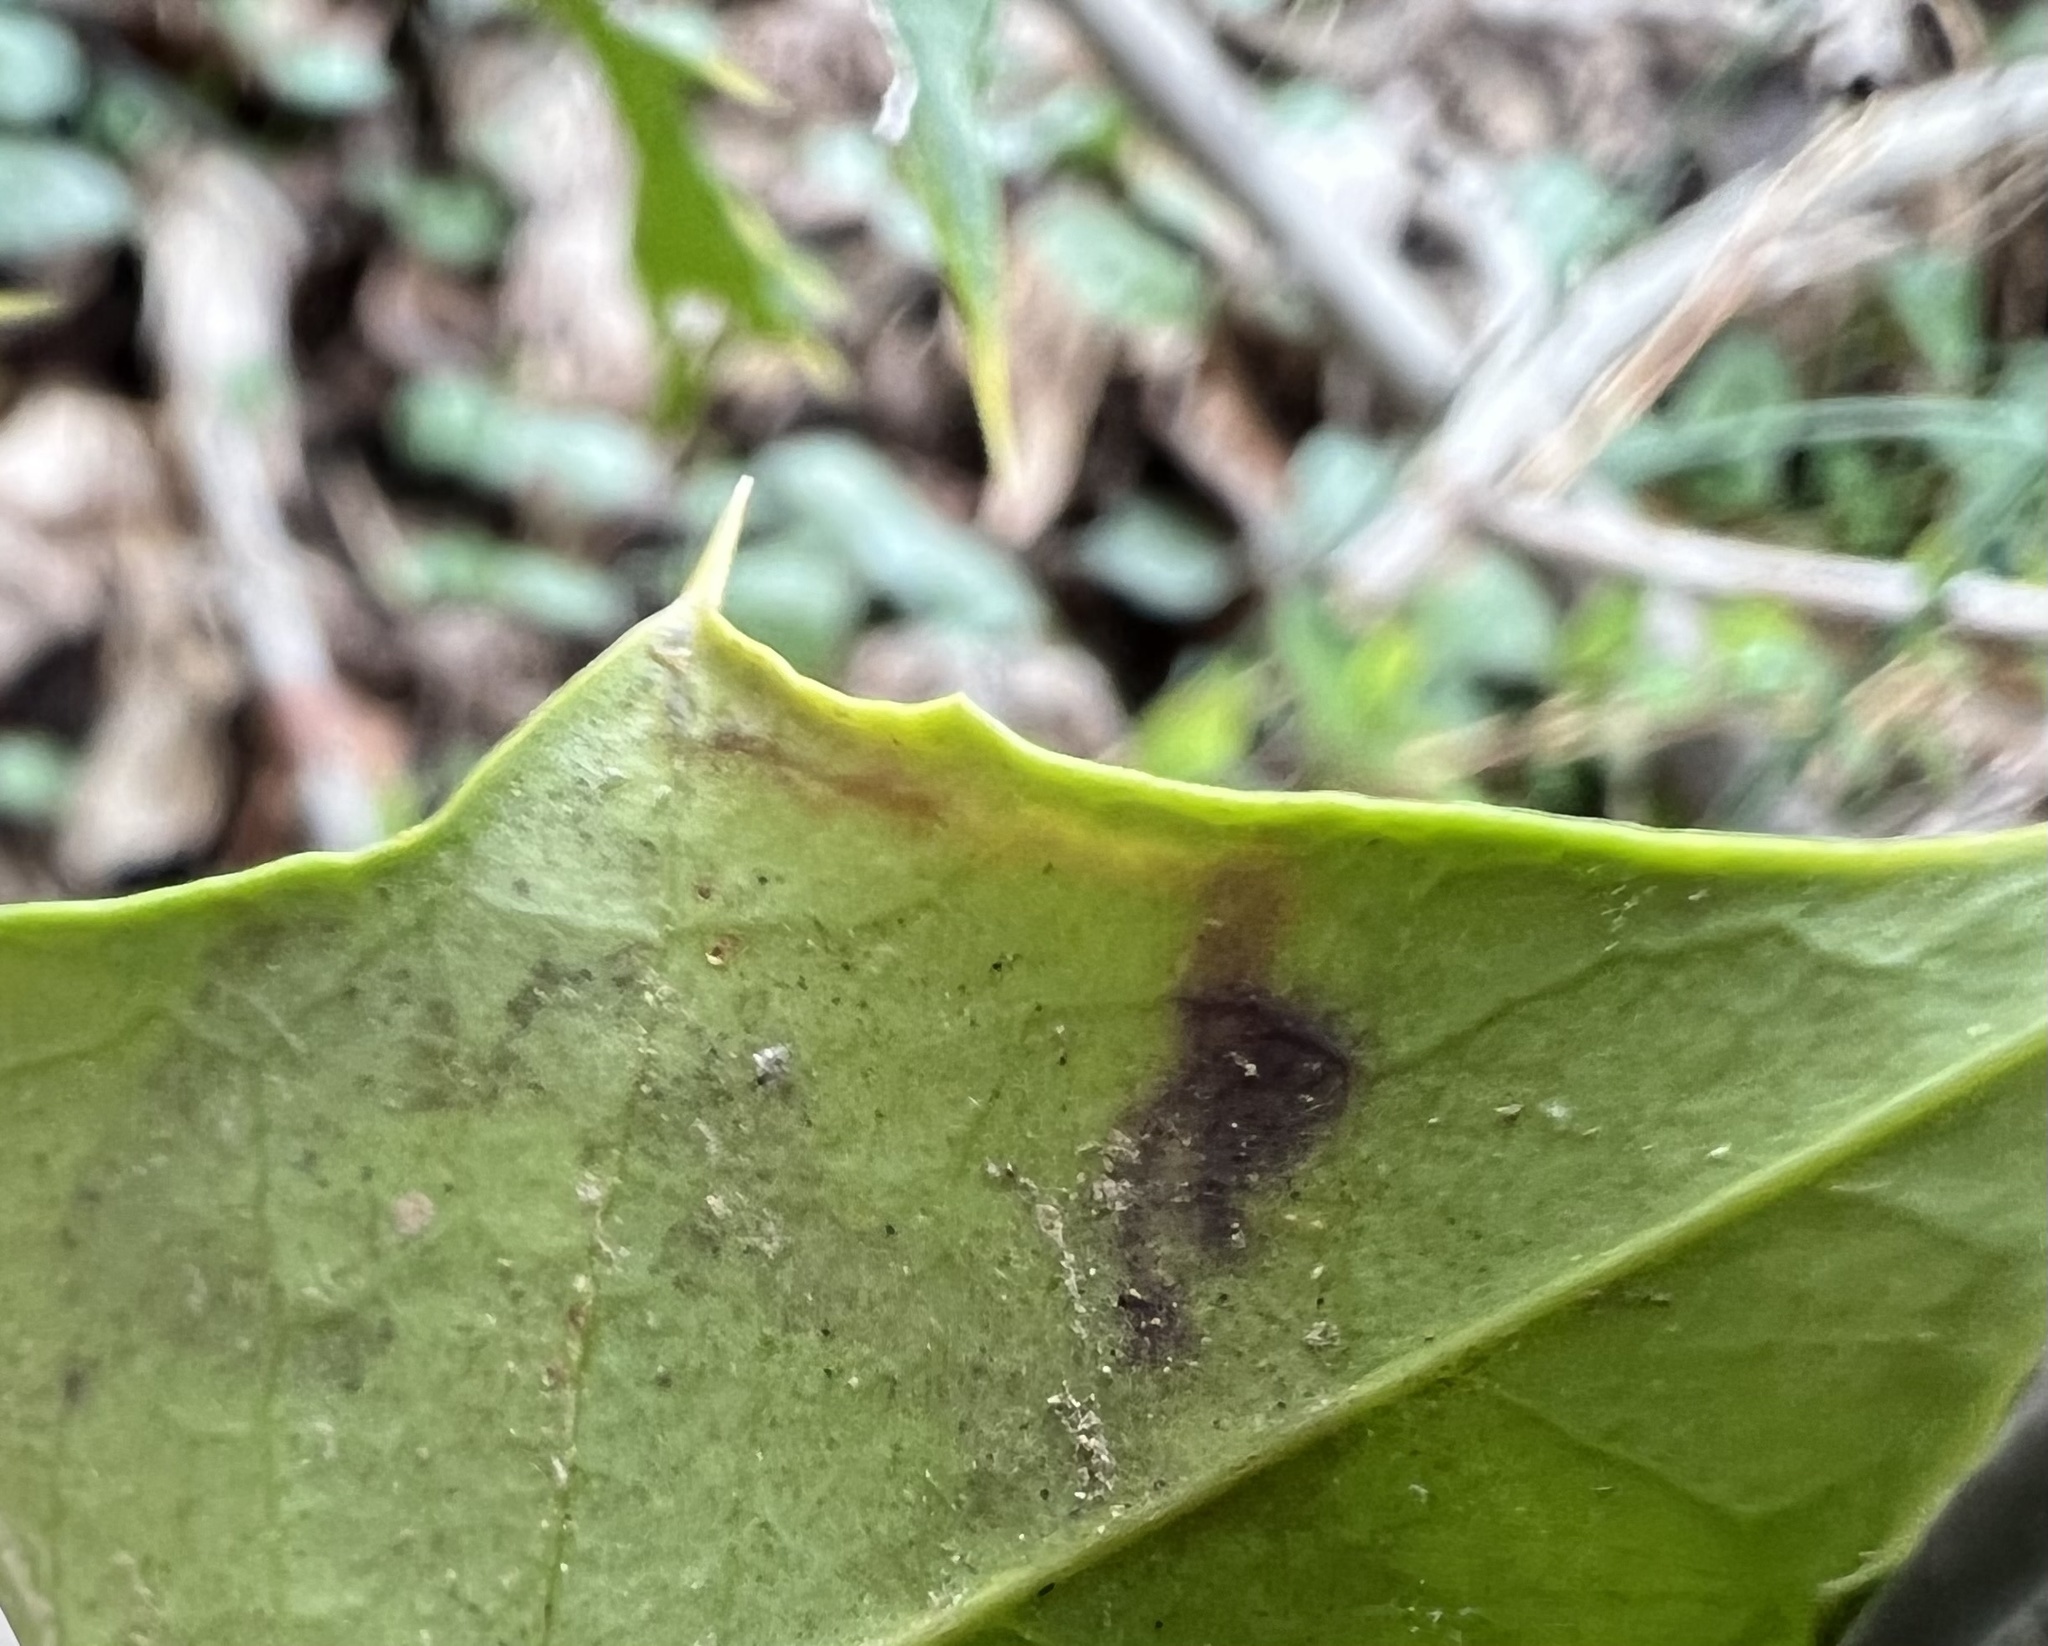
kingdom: Animalia
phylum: Arthropoda
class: Insecta
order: Diptera
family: Agromyzidae
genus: Phytomyza
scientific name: Phytomyza ilicicola
